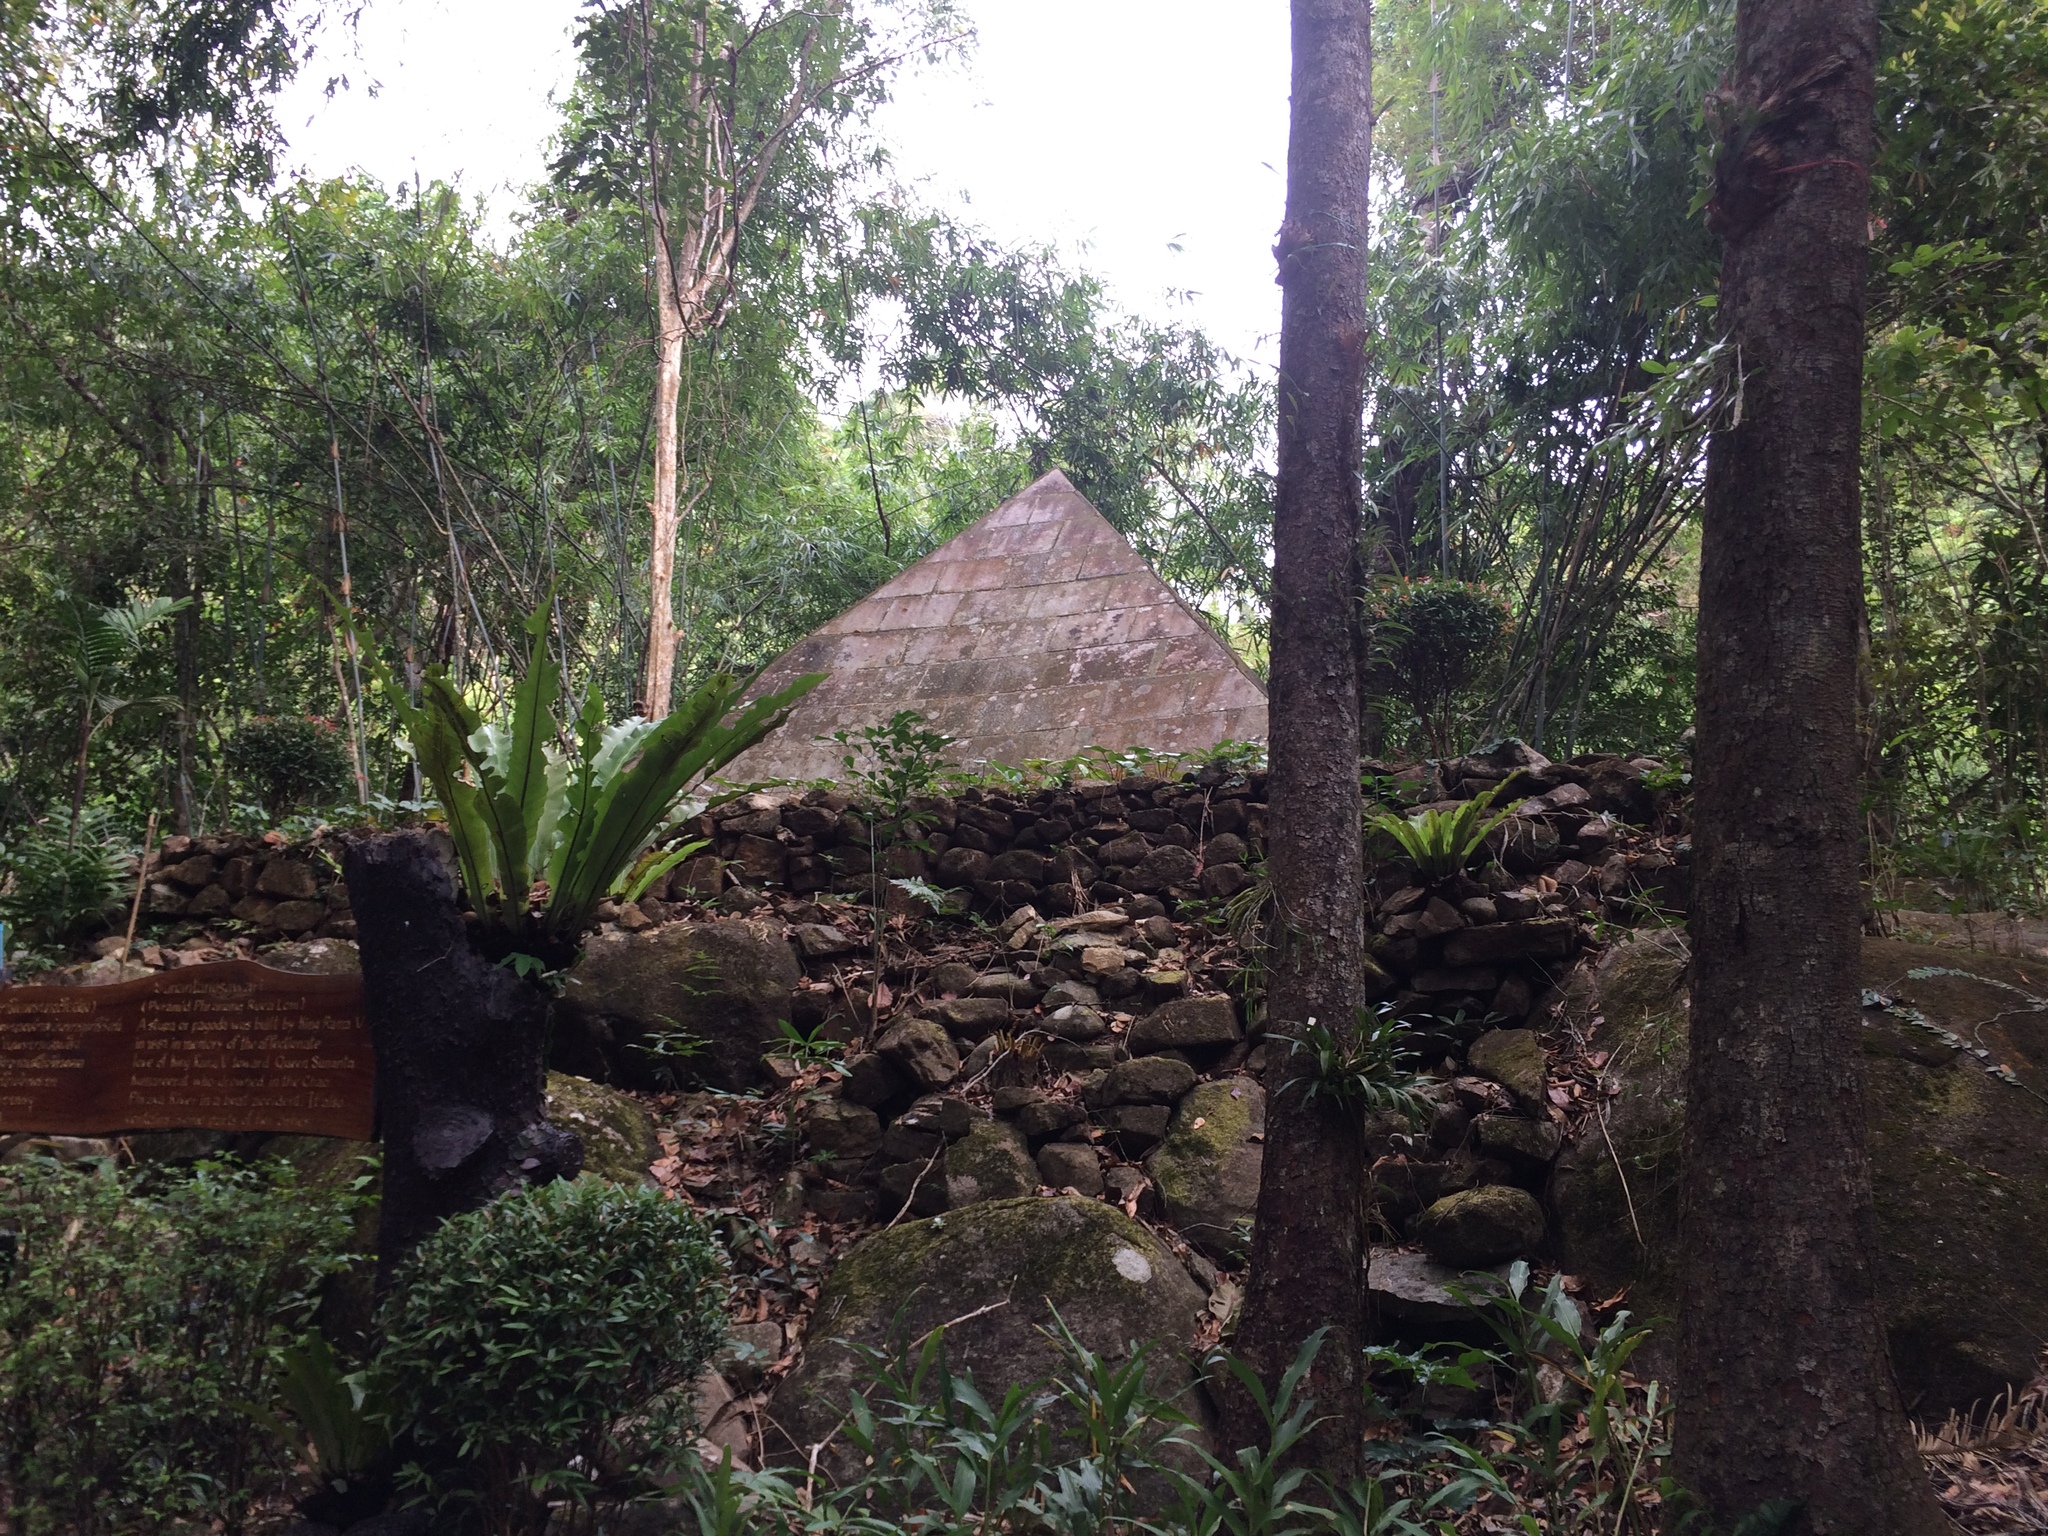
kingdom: Plantae
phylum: Tracheophyta
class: Polypodiopsida
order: Polypodiales
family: Aspleniaceae
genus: Asplenium
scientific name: Asplenium nidus
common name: Bird's-nest fern
